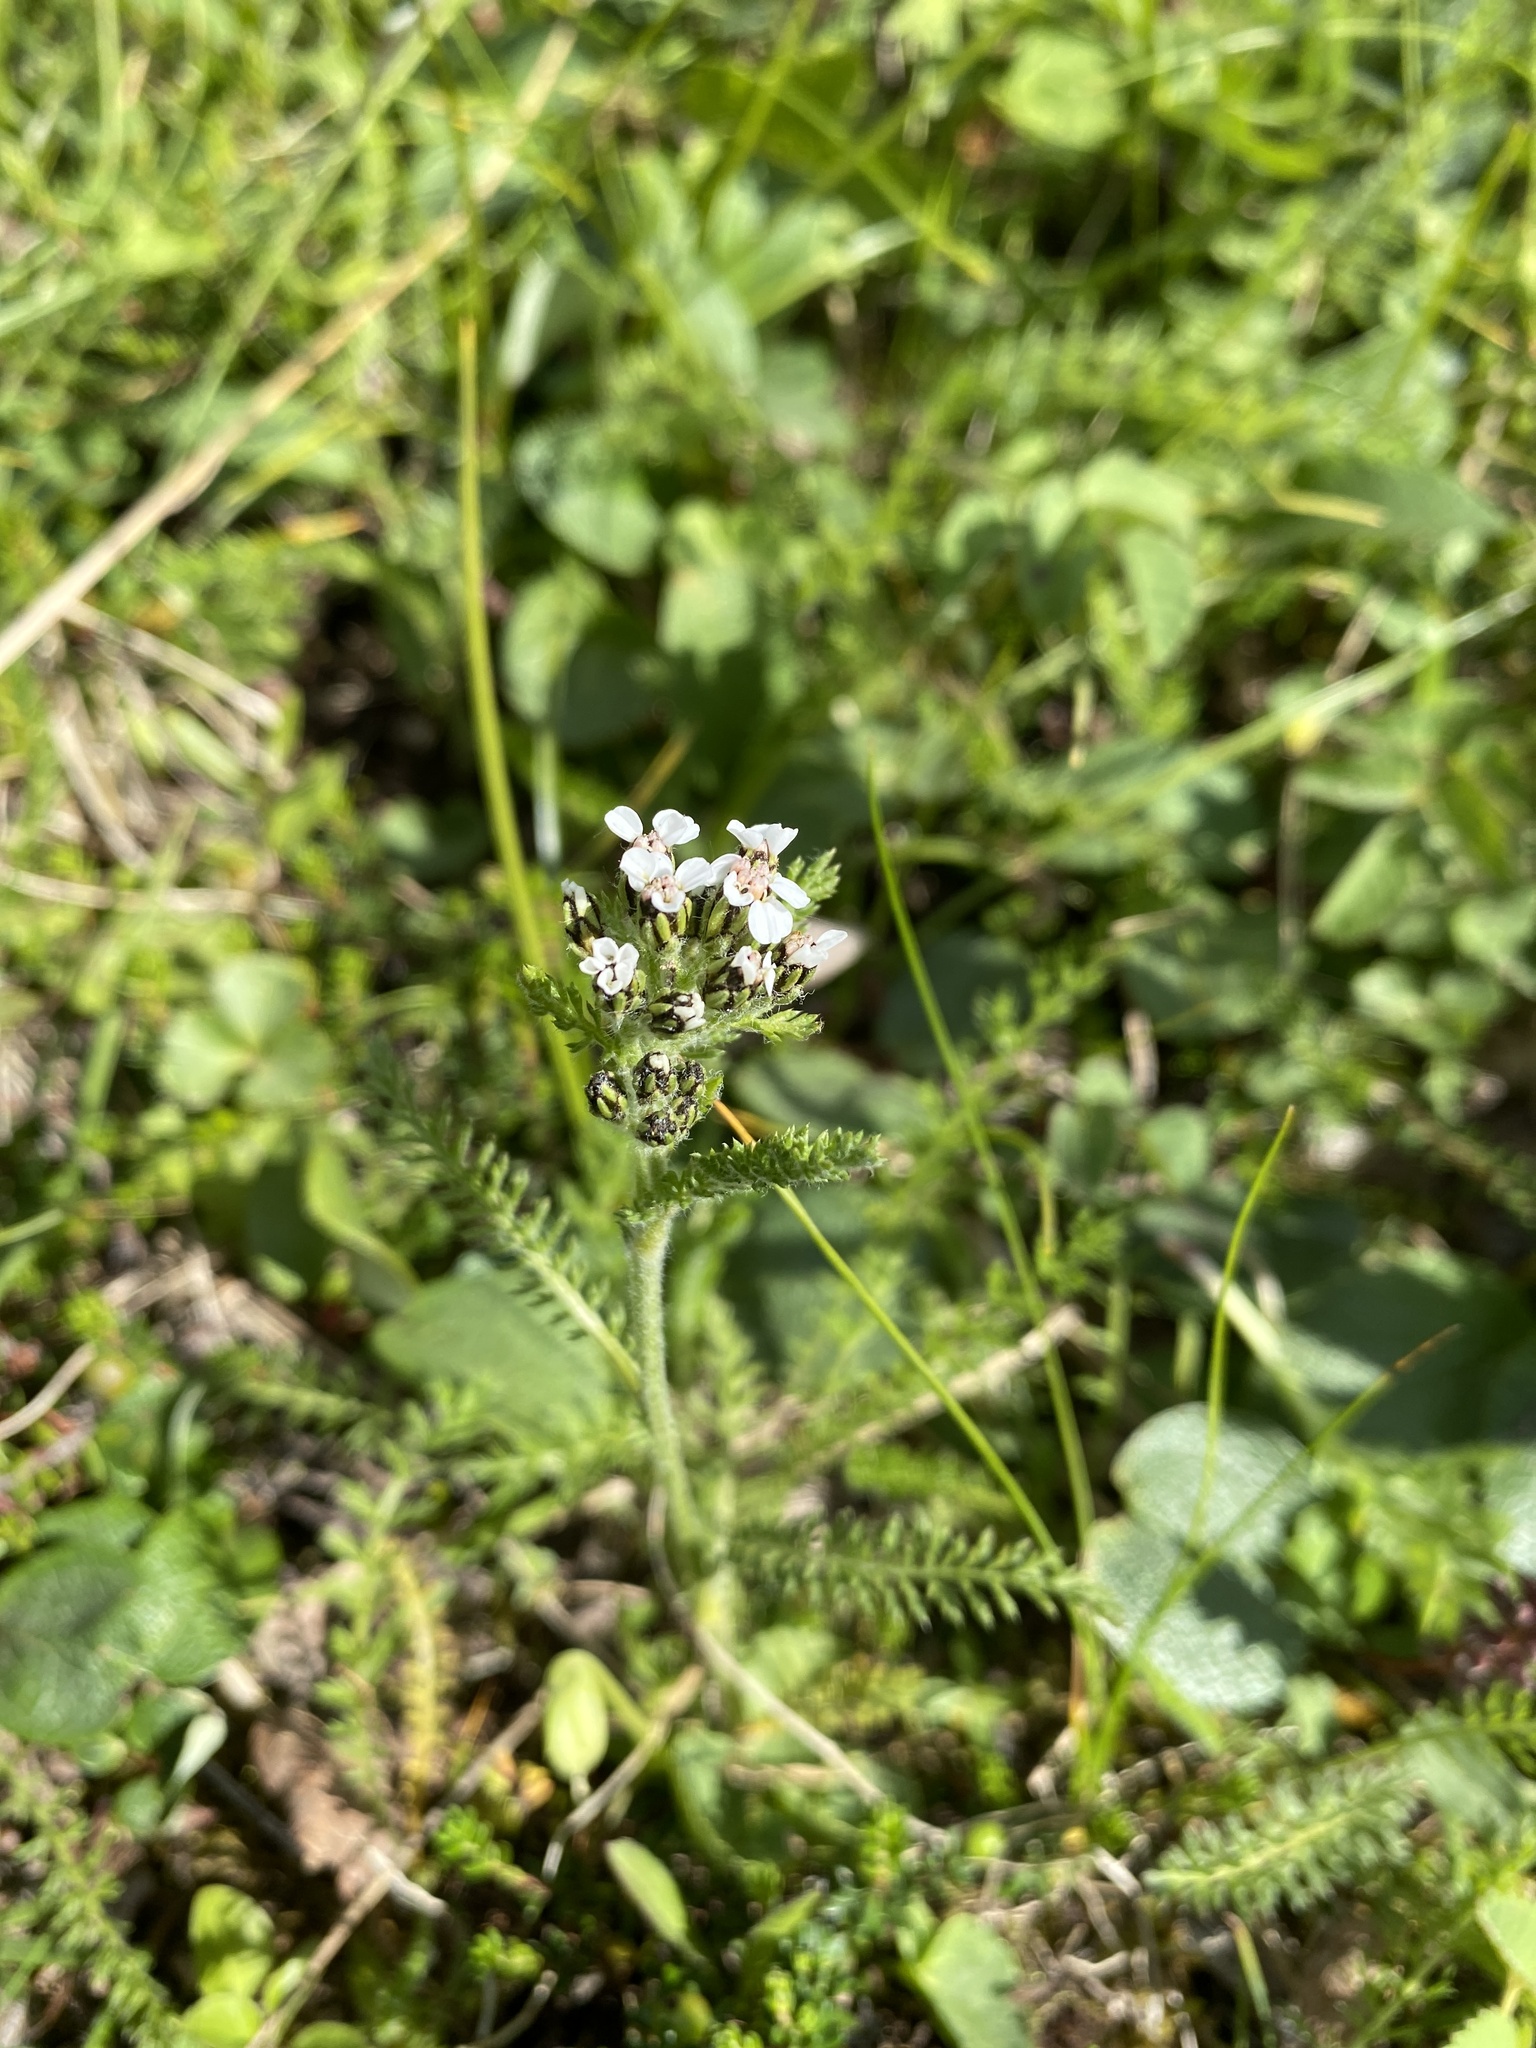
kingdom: Plantae
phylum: Tracheophyta
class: Magnoliopsida
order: Asterales
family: Asteraceae
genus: Achillea
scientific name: Achillea millefolium
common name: Yarrow
